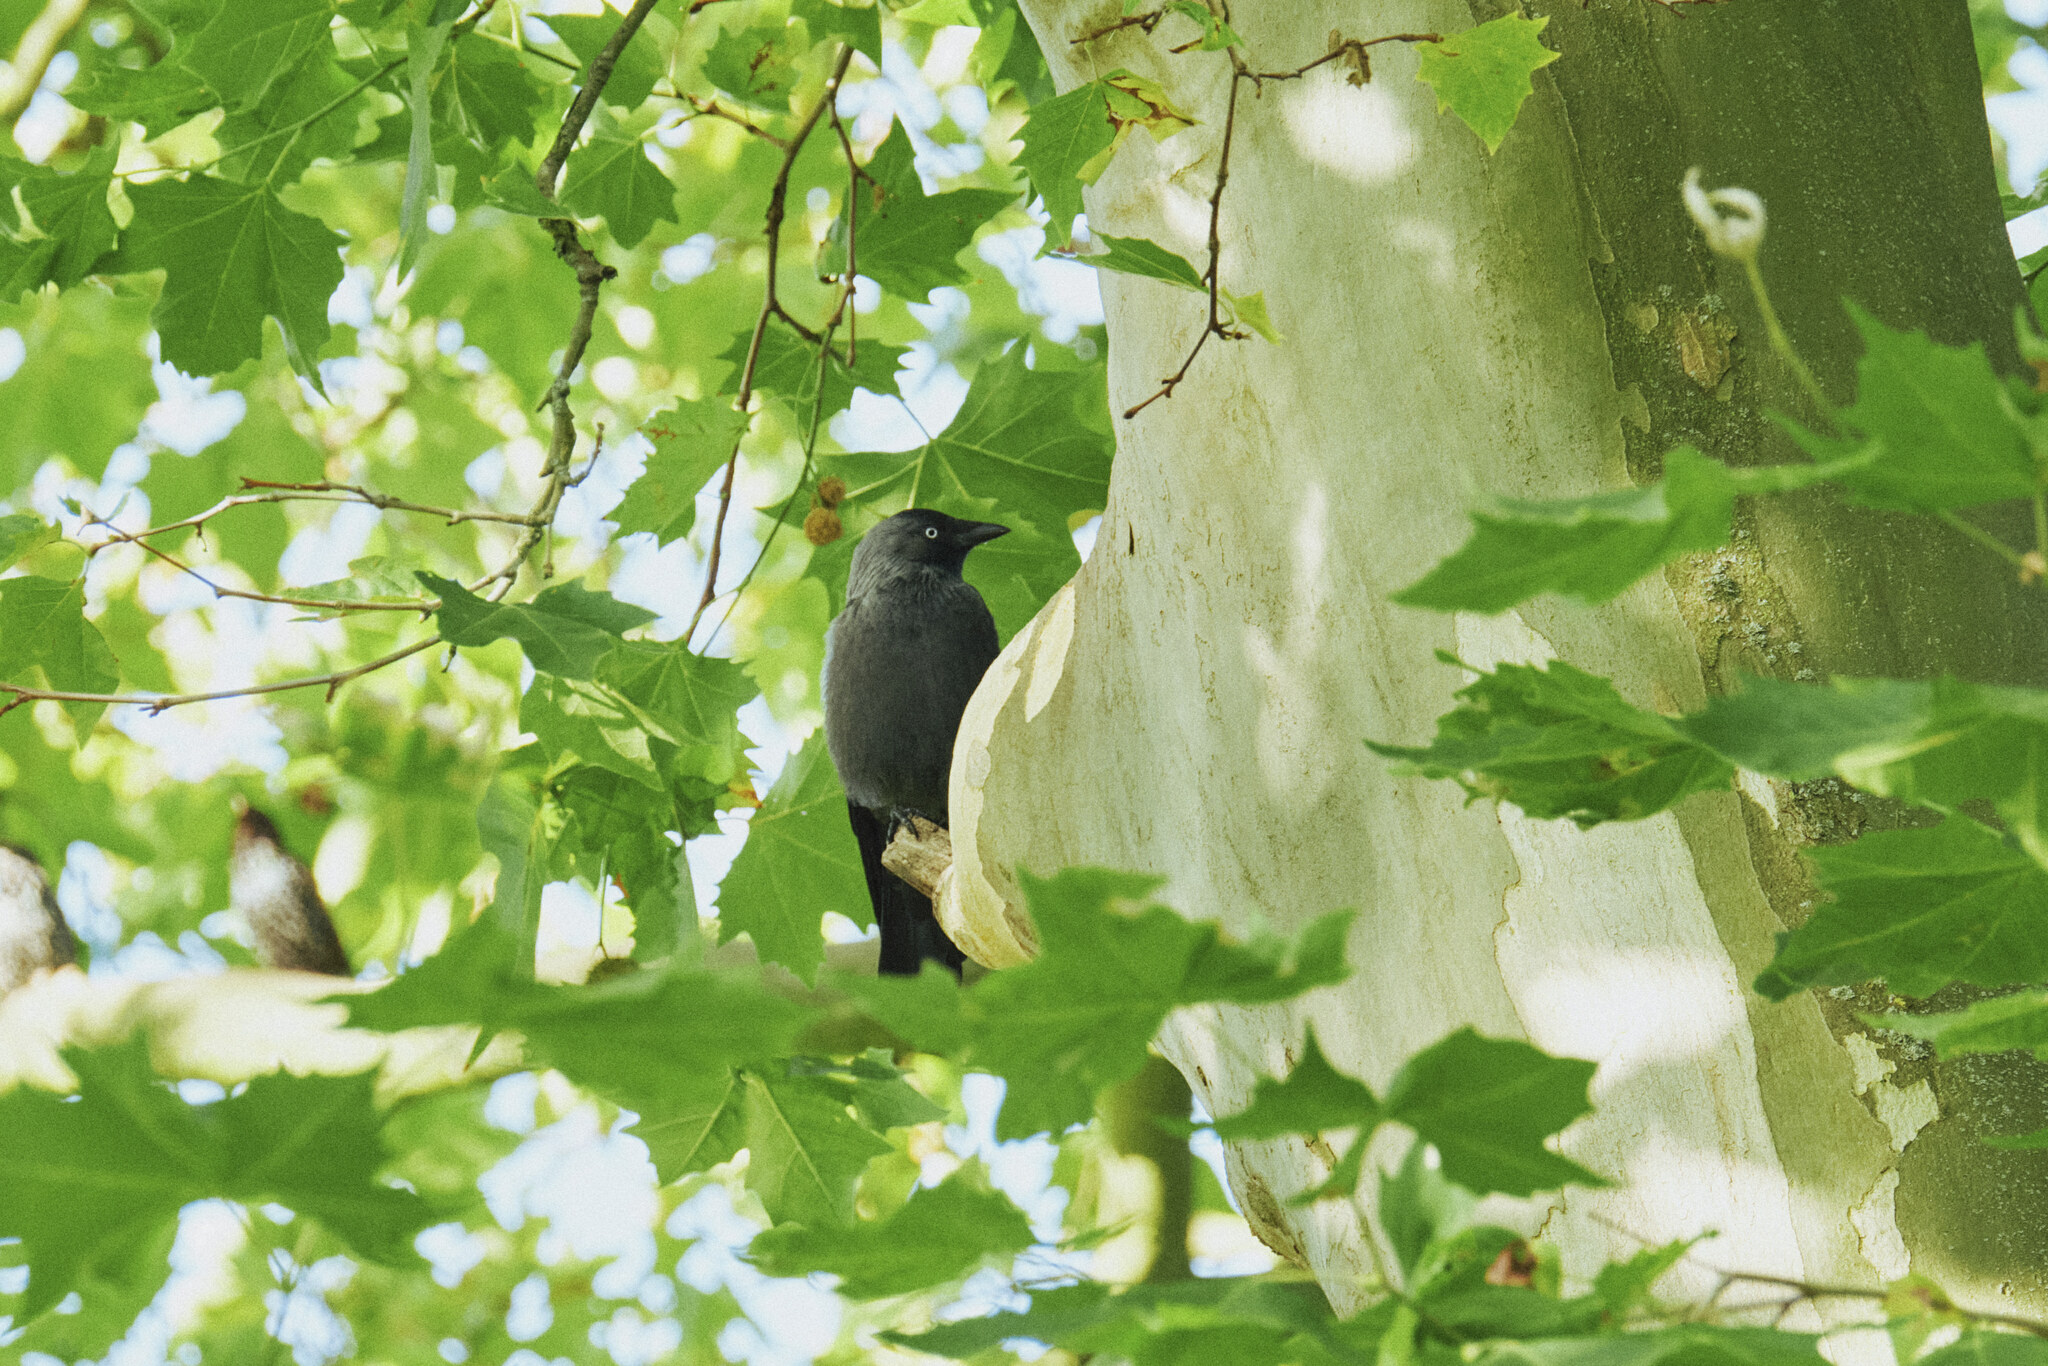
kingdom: Animalia
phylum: Chordata
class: Aves
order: Passeriformes
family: Corvidae
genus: Coloeus
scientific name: Coloeus monedula
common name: Western jackdaw
